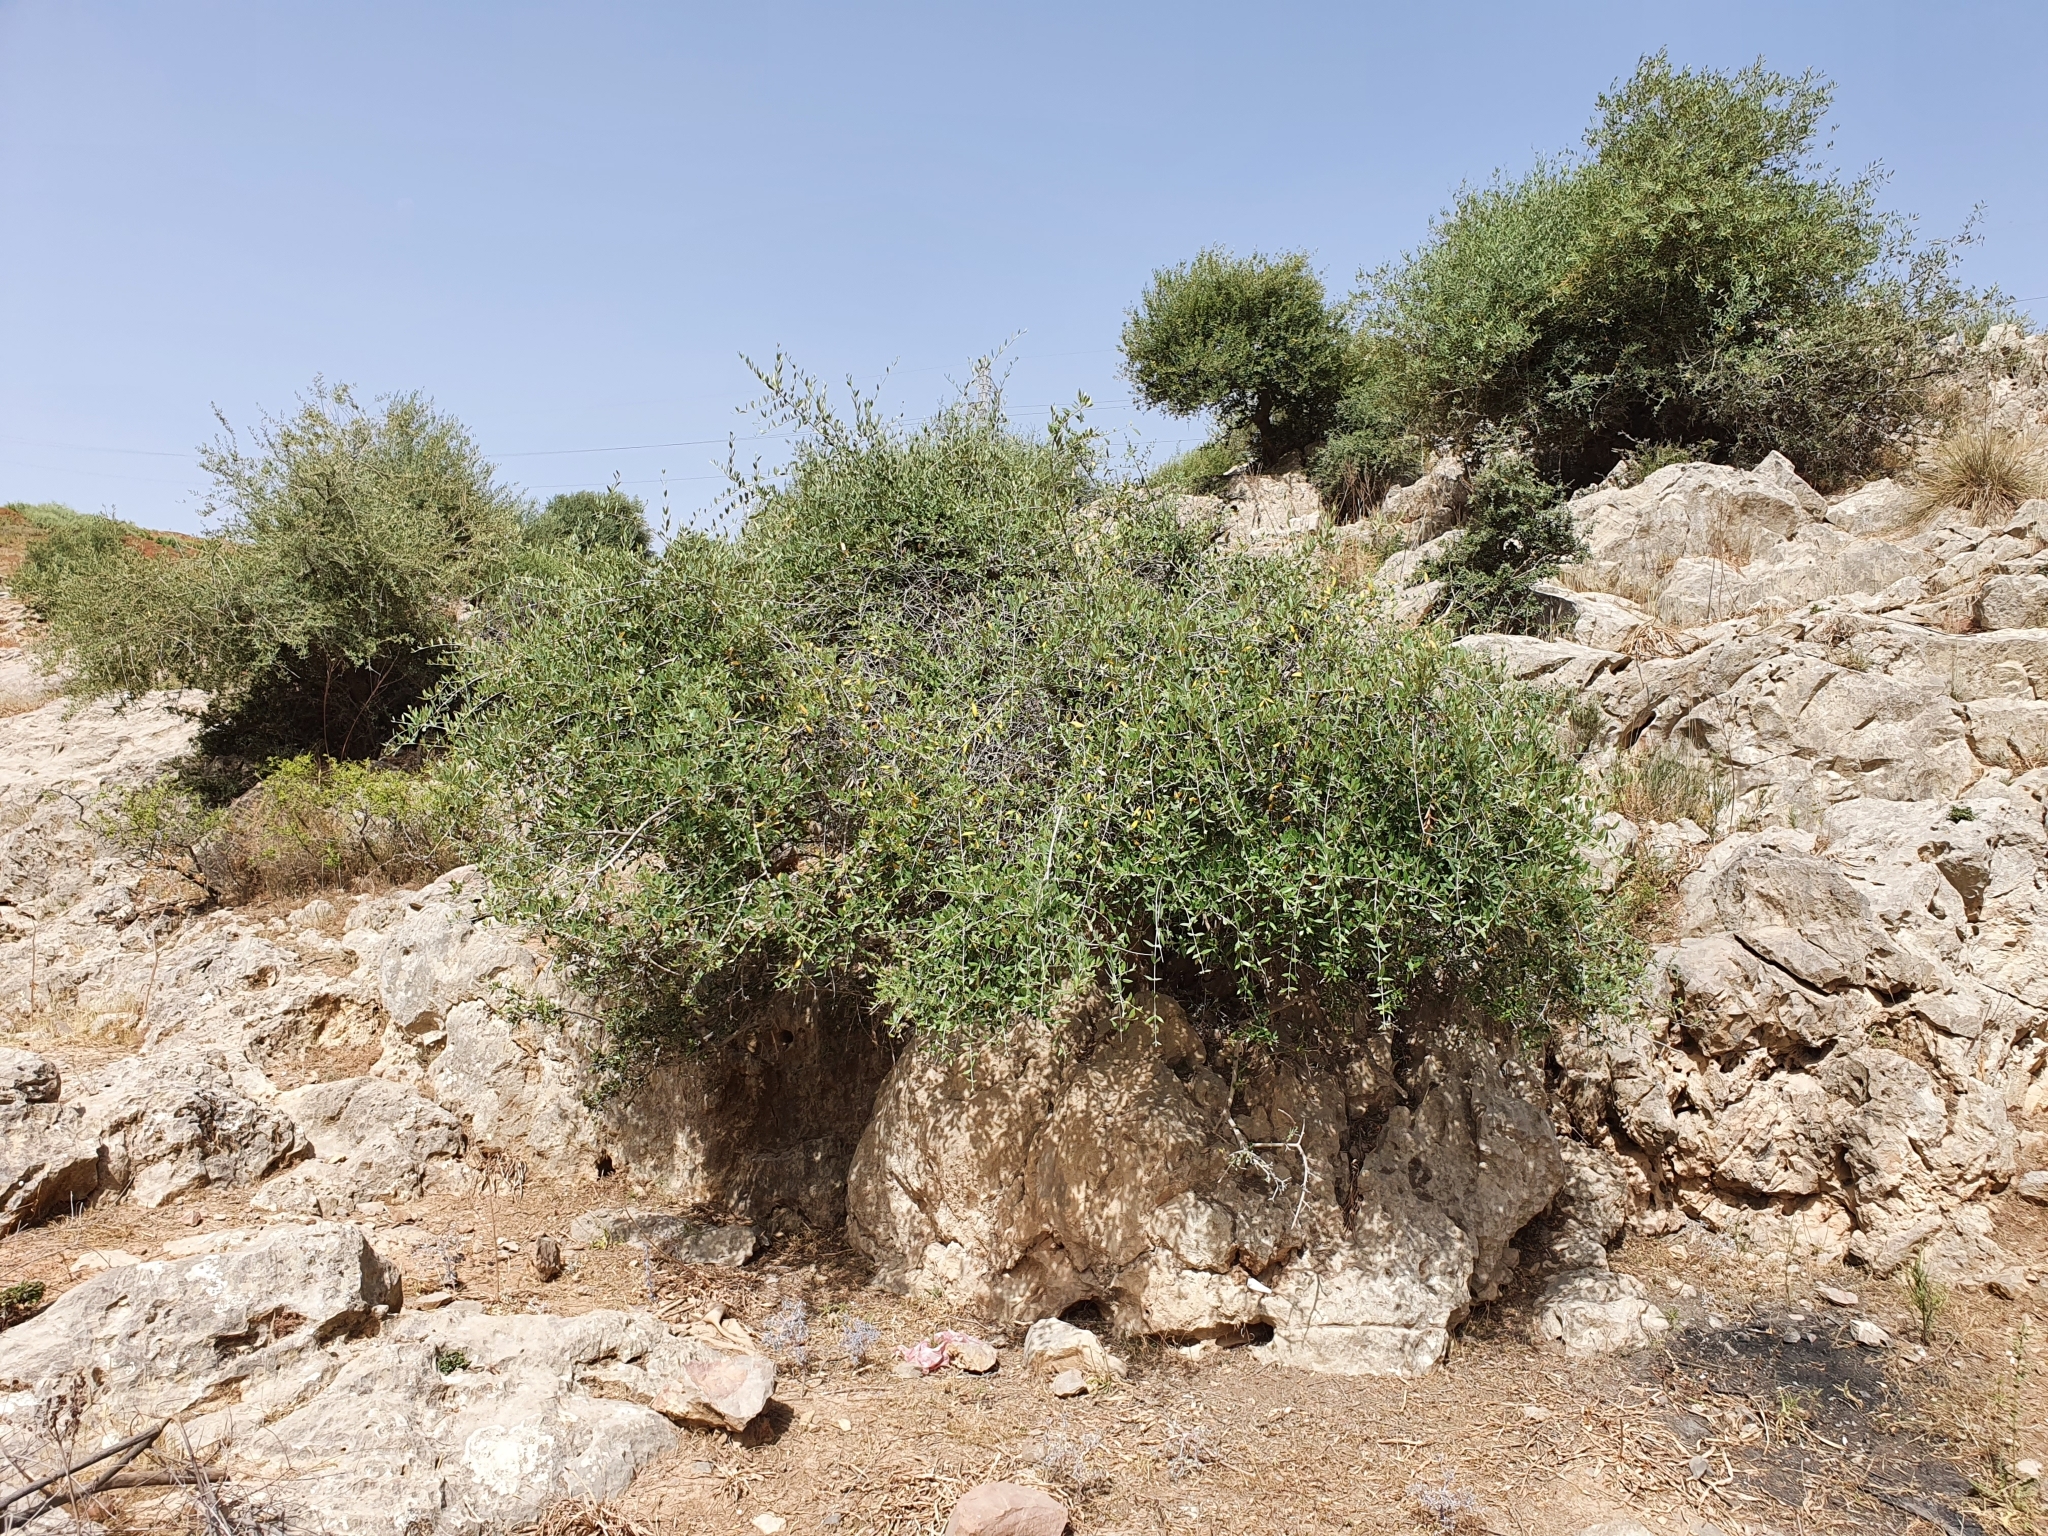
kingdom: Plantae
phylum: Tracheophyta
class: Magnoliopsida
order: Lamiales
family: Oleaceae
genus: Olea
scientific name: Olea europaea
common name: Olive
